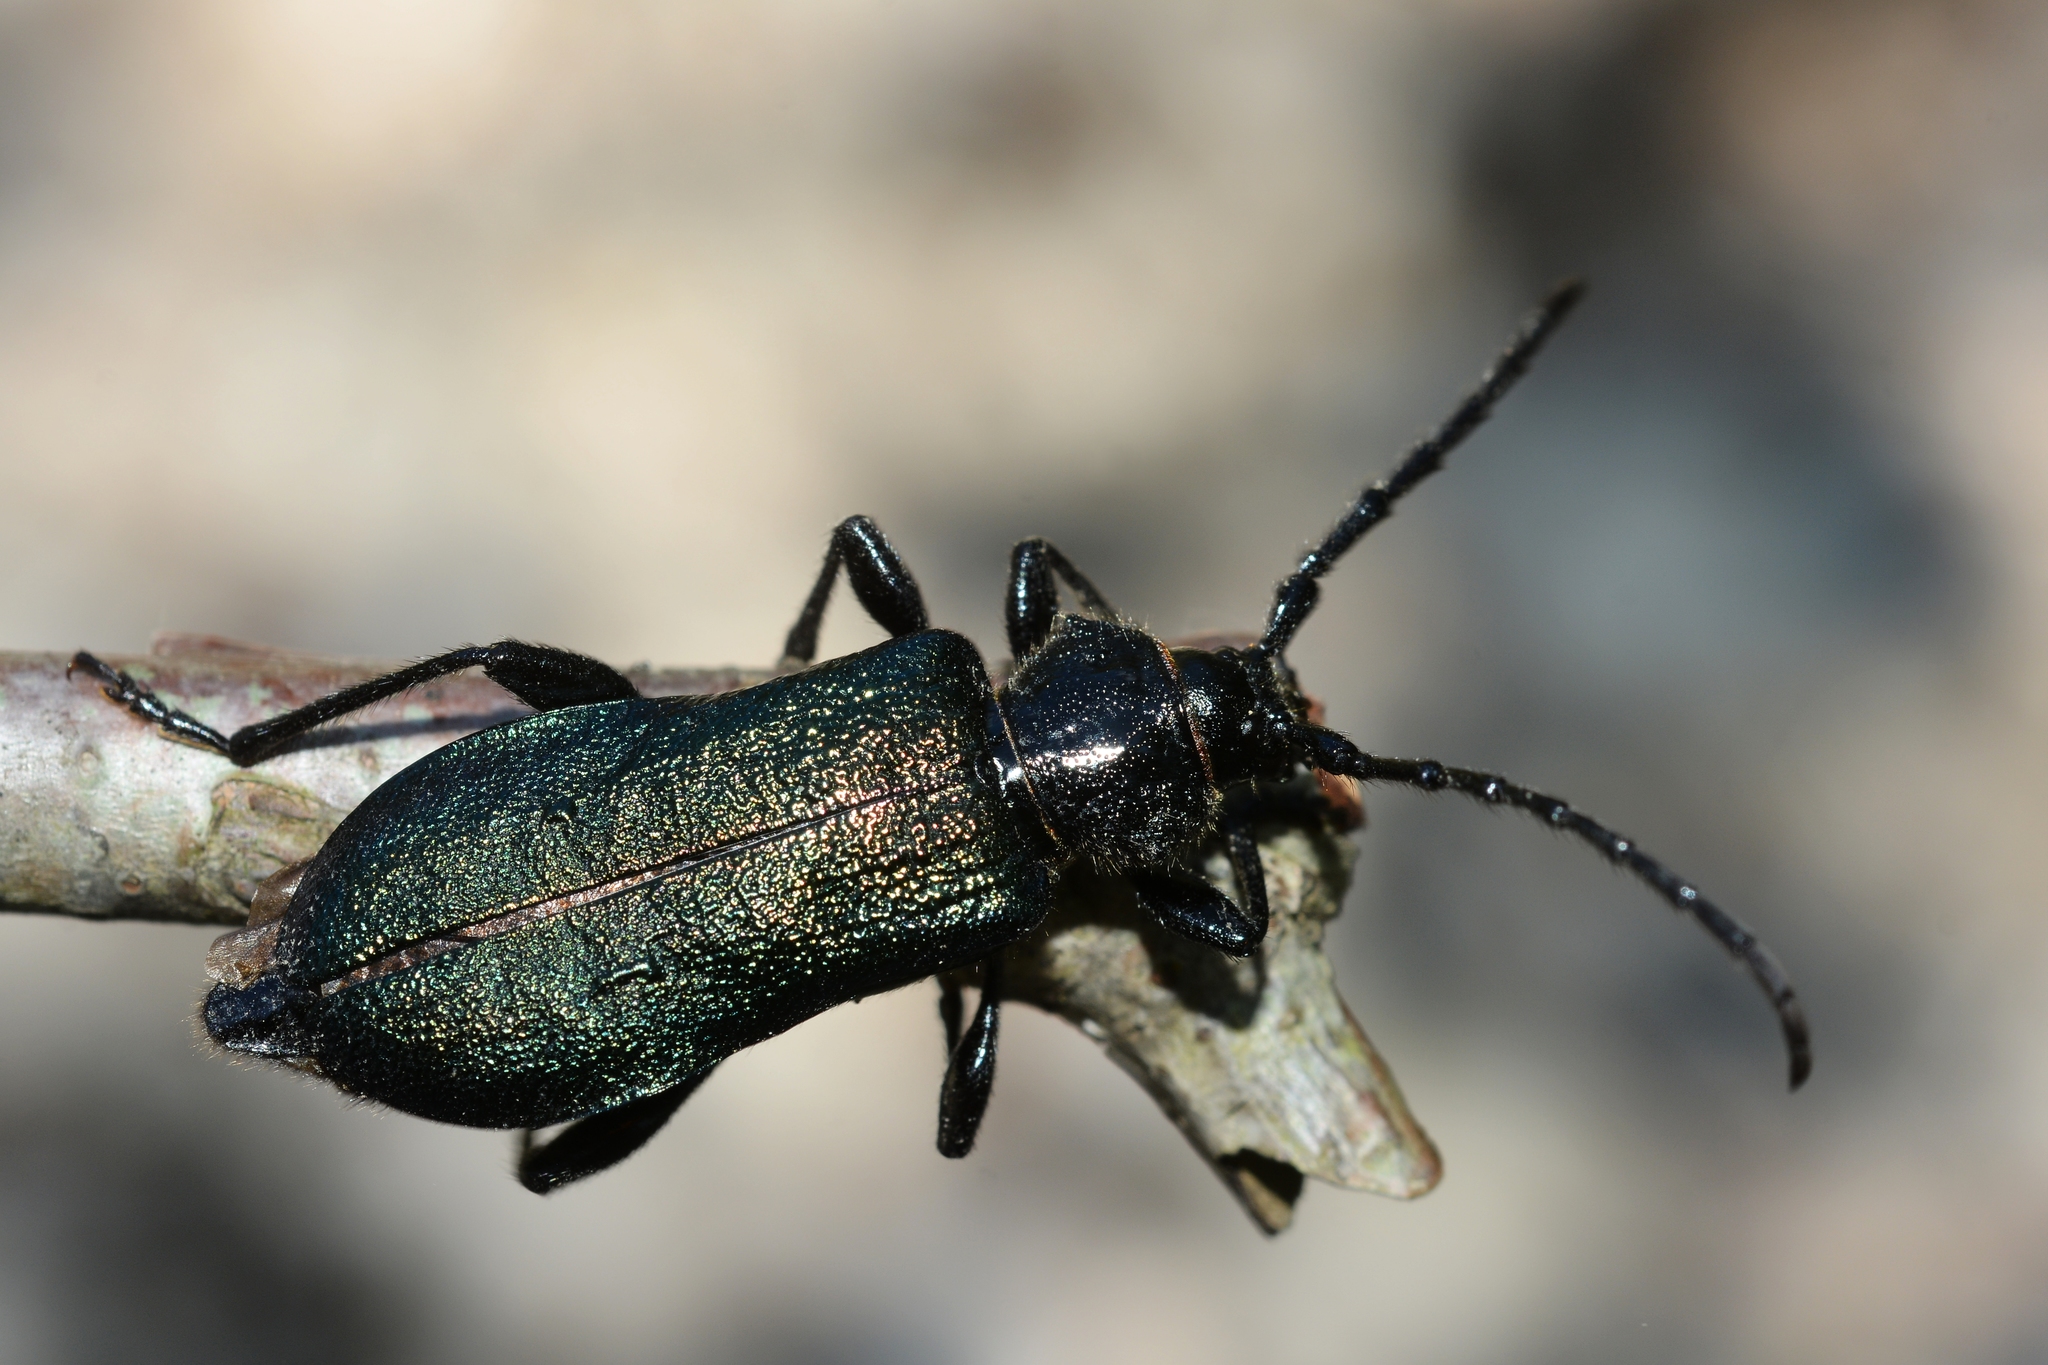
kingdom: Animalia
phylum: Arthropoda
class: Insecta
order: Coleoptera
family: Cerambycidae
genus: Ropalopus
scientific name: Ropalopus ungaricus
